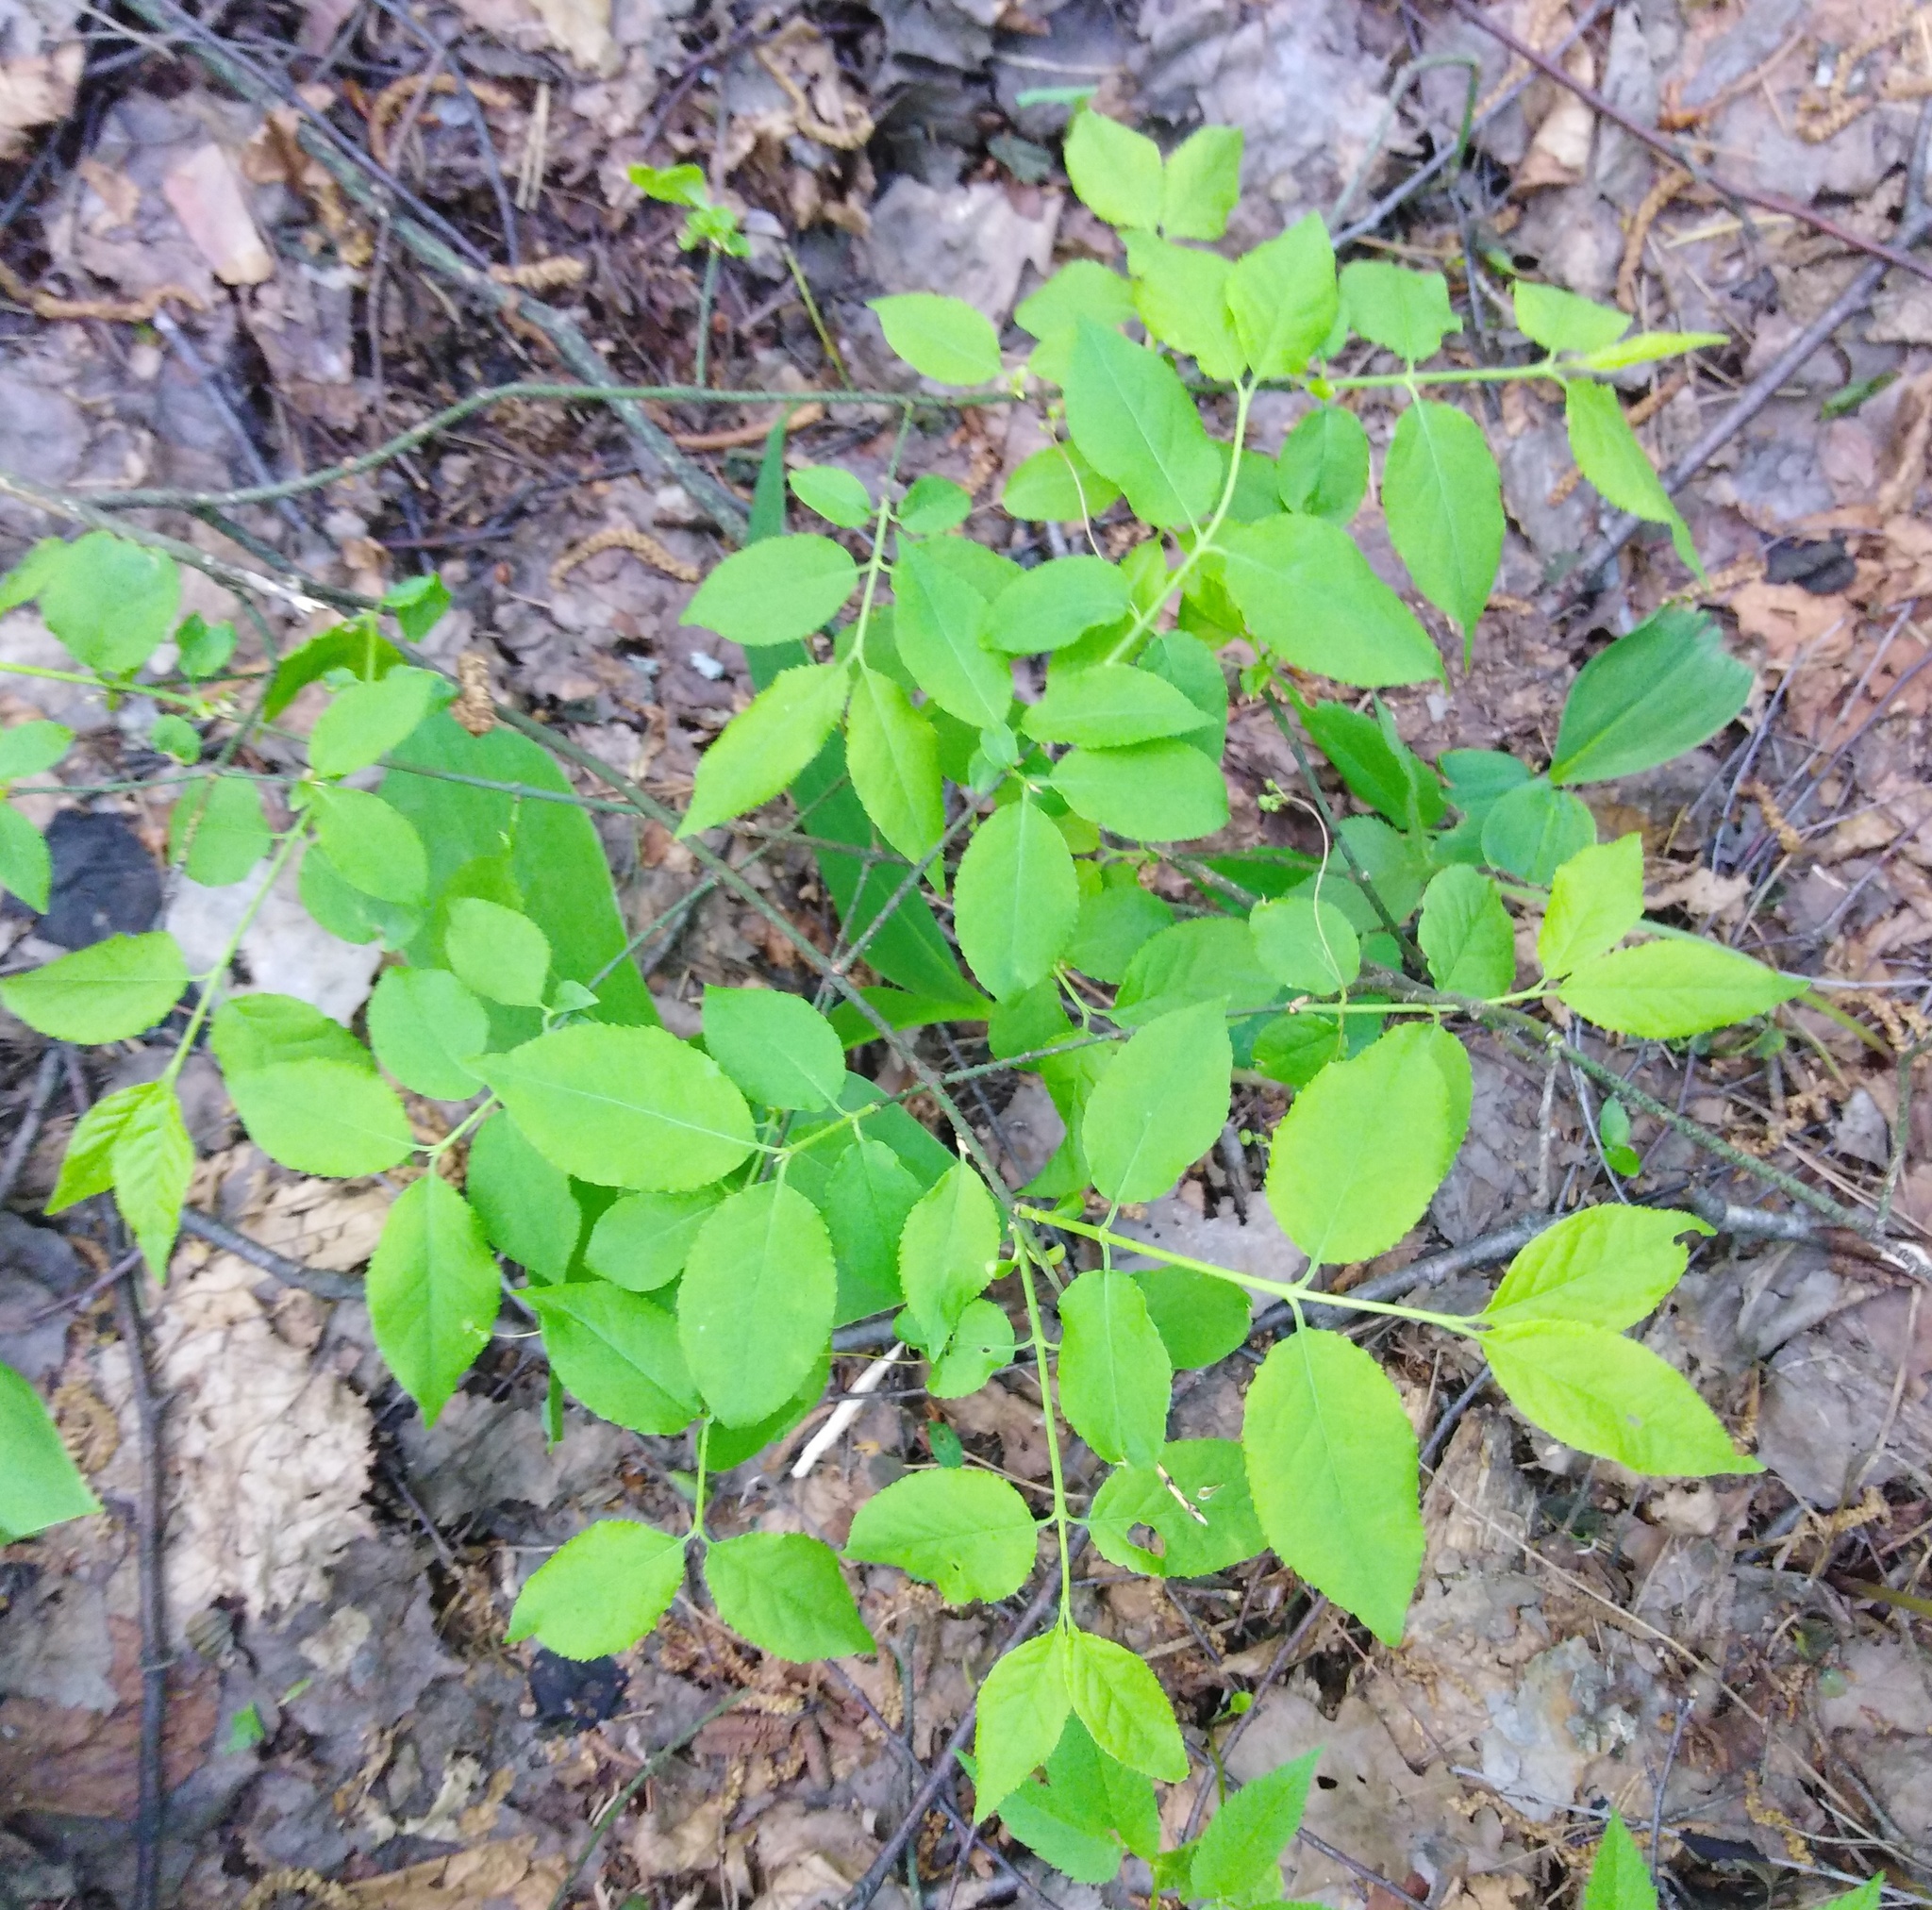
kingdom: Plantae
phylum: Tracheophyta
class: Magnoliopsida
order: Celastrales
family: Celastraceae
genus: Euonymus
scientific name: Euonymus verrucosus
